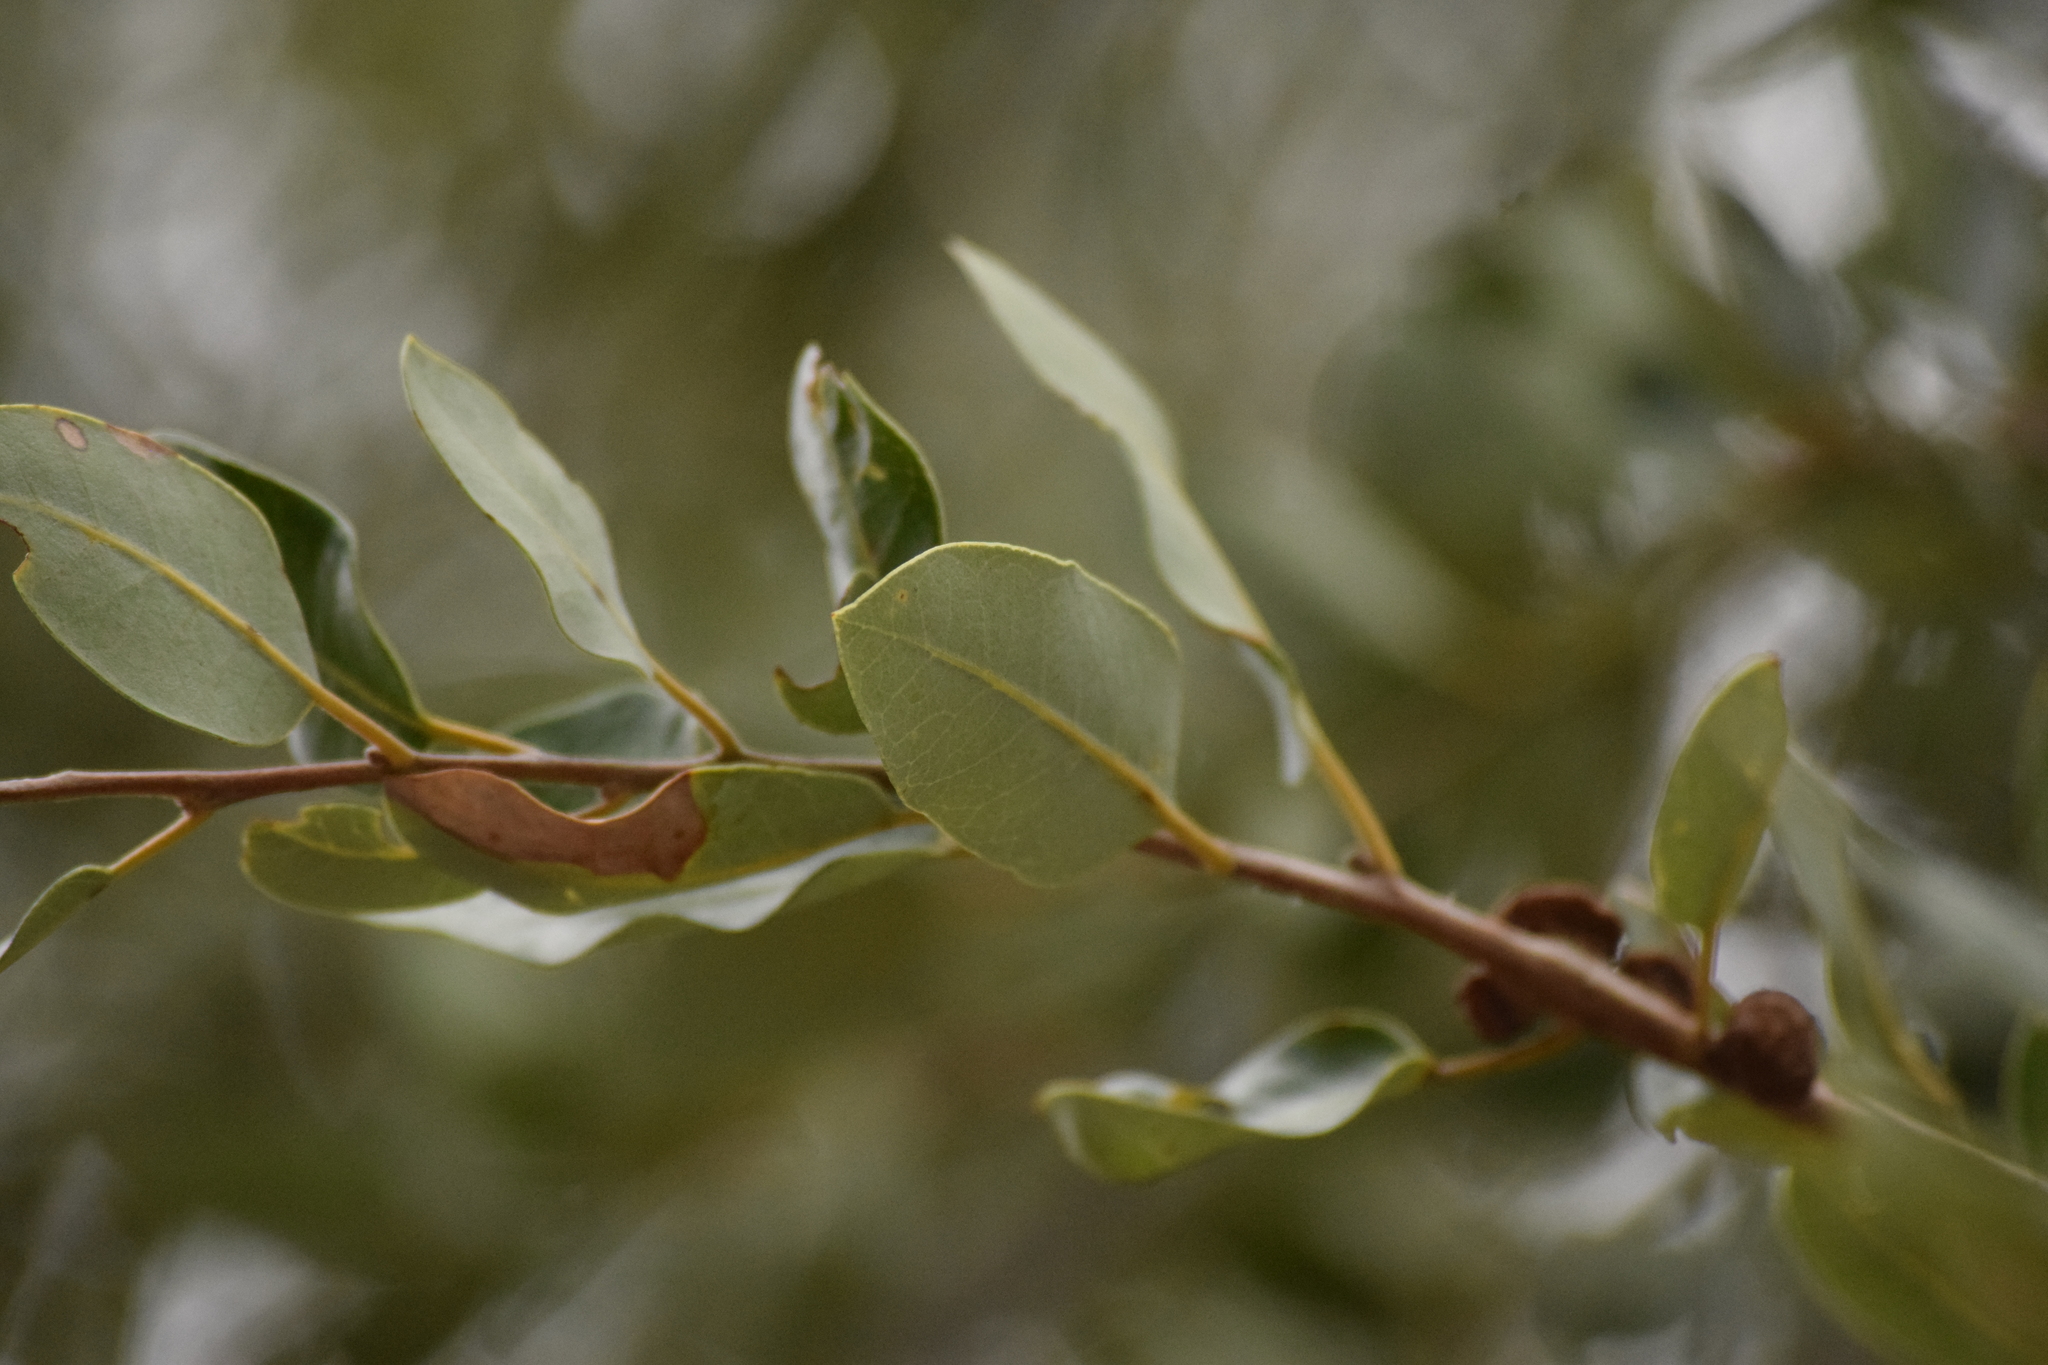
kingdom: Plantae
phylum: Tracheophyta
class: Magnoliopsida
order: Fagales
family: Fagaceae
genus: Quercus
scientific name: Quercus chrysolepis
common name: Canyon live oak
